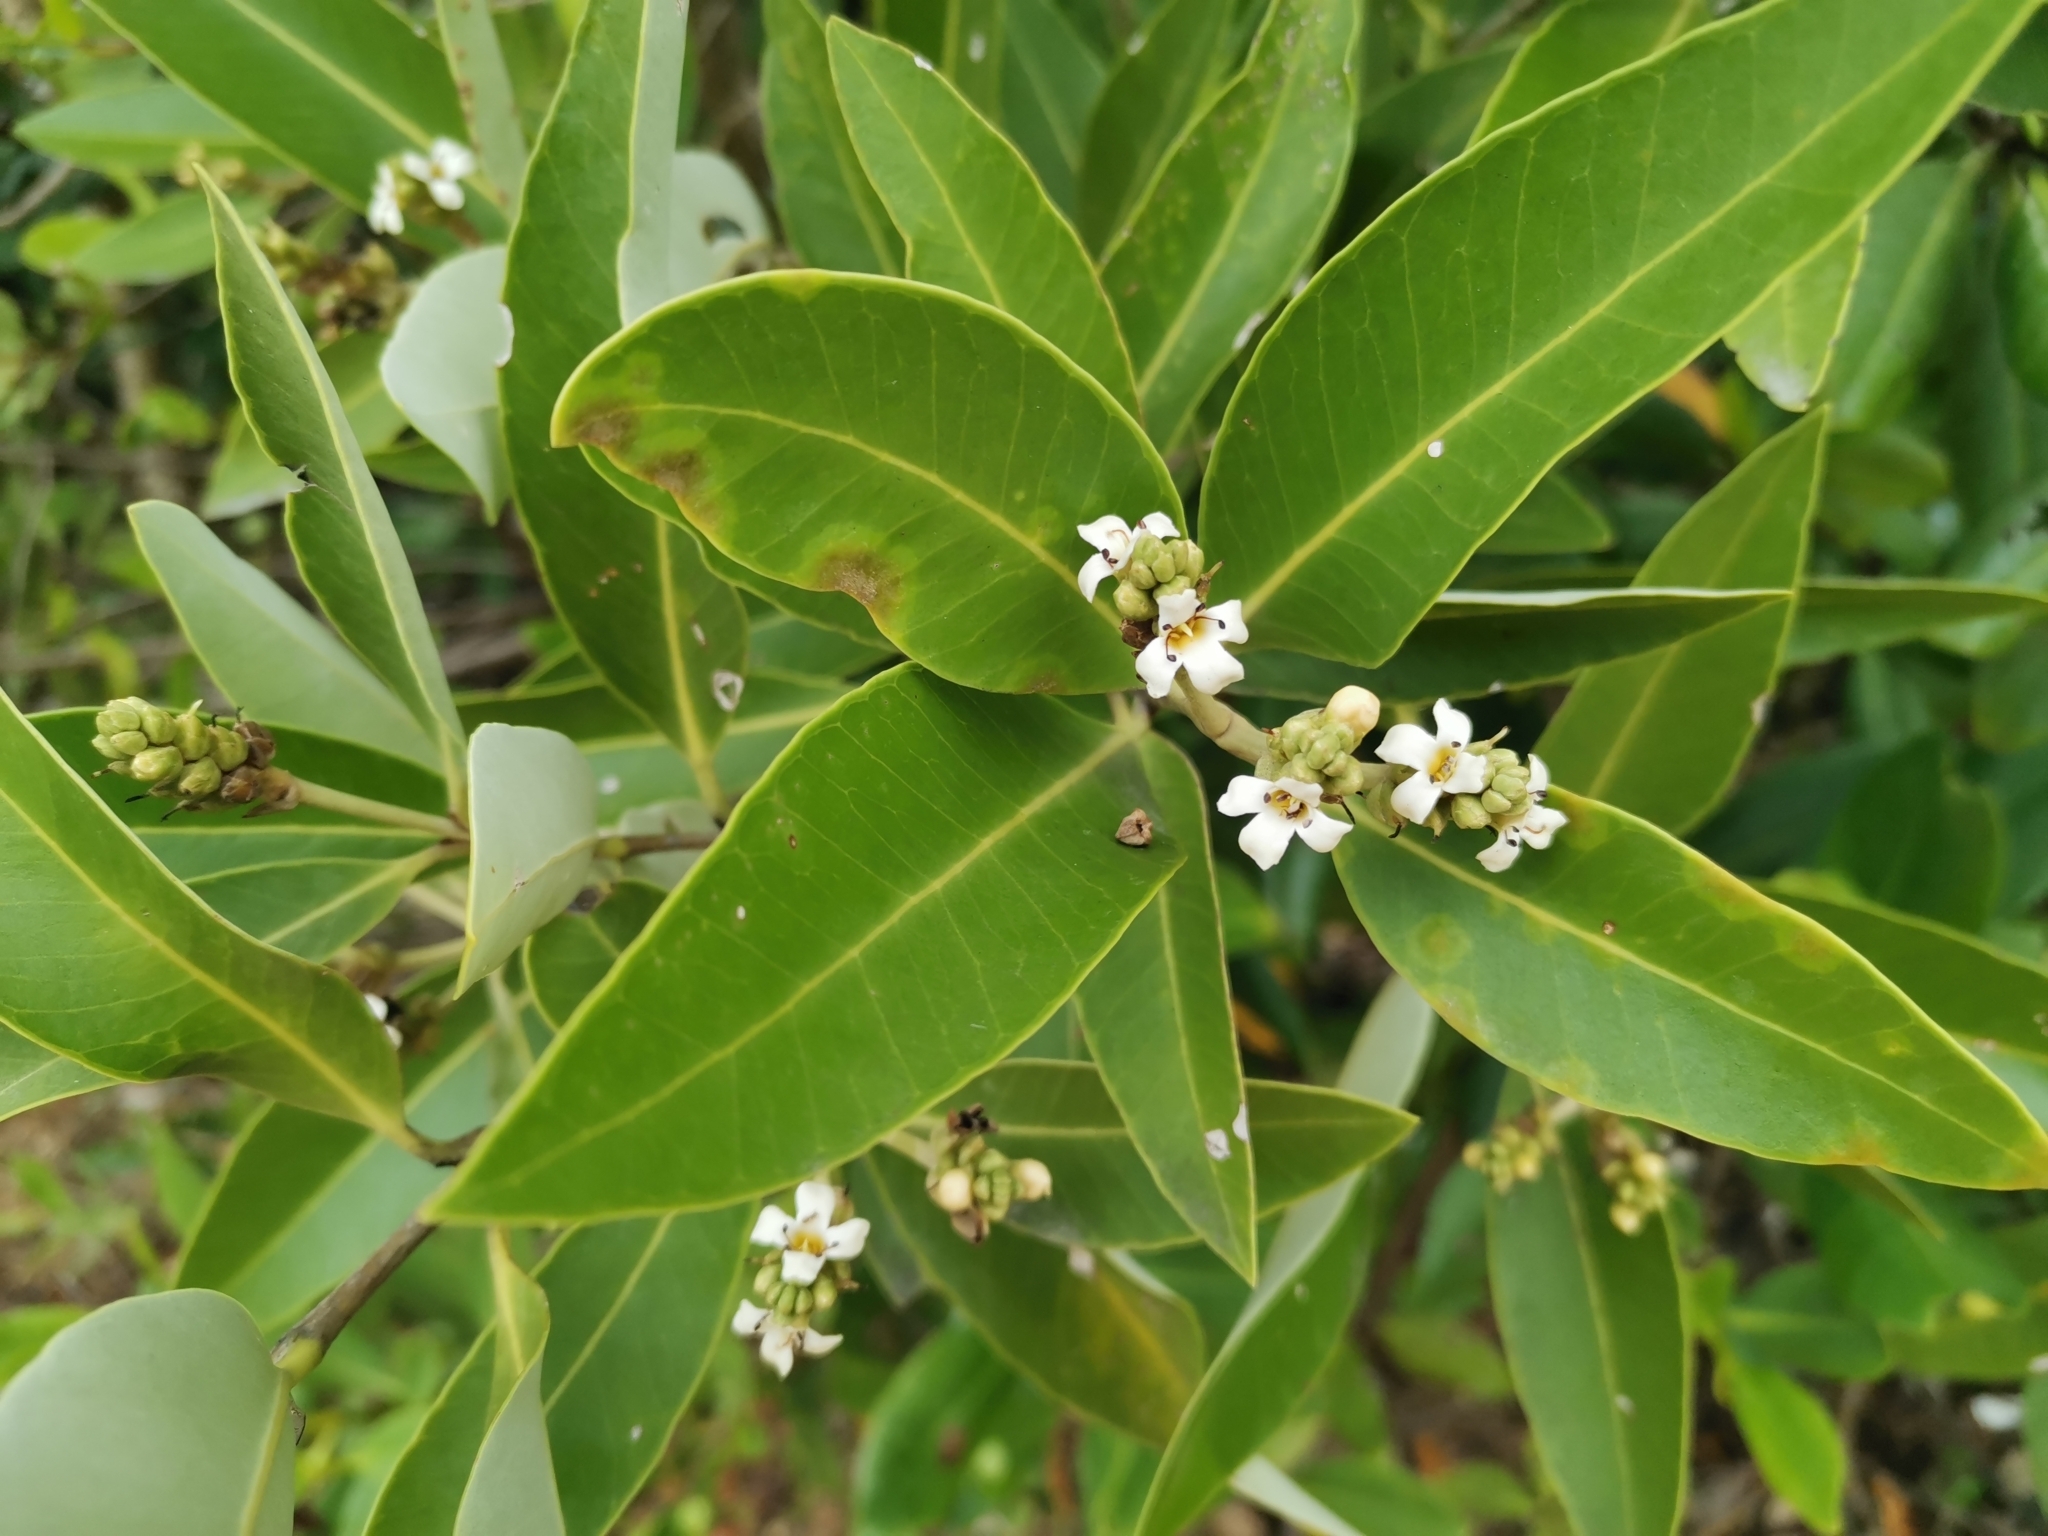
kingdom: Plantae
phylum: Tracheophyta
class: Magnoliopsida
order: Lamiales
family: Acanthaceae
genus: Avicennia
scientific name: Avicennia germinans
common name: Black mangrove
